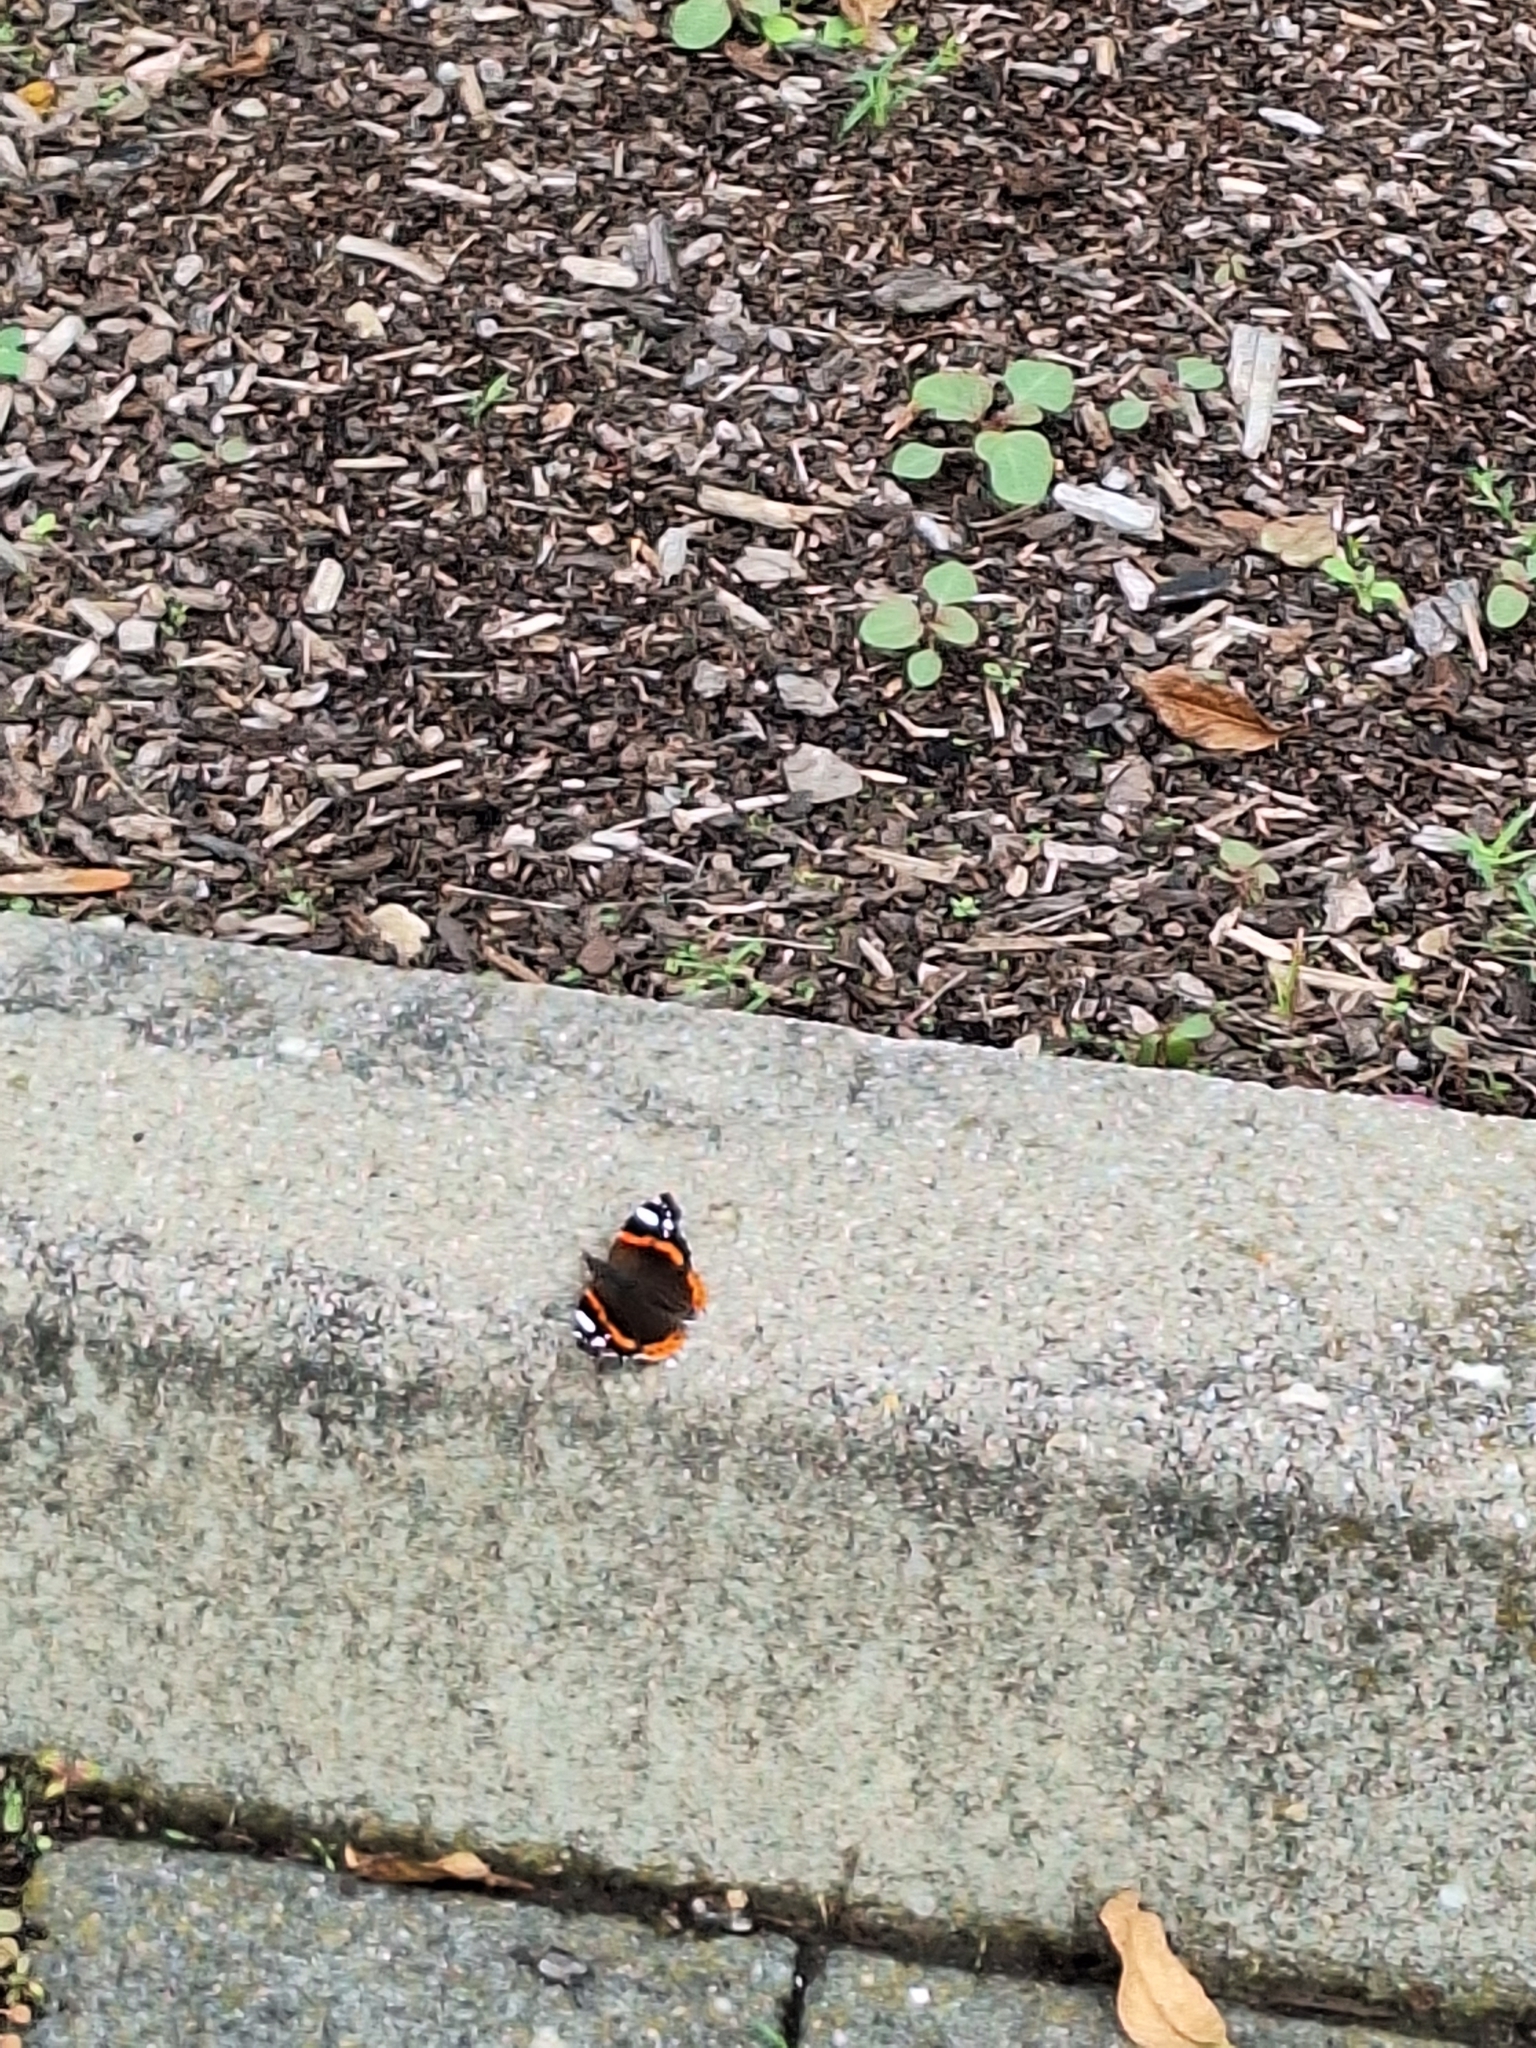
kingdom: Animalia
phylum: Arthropoda
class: Insecta
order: Lepidoptera
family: Nymphalidae
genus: Vanessa
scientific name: Vanessa atalanta
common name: Red admiral
